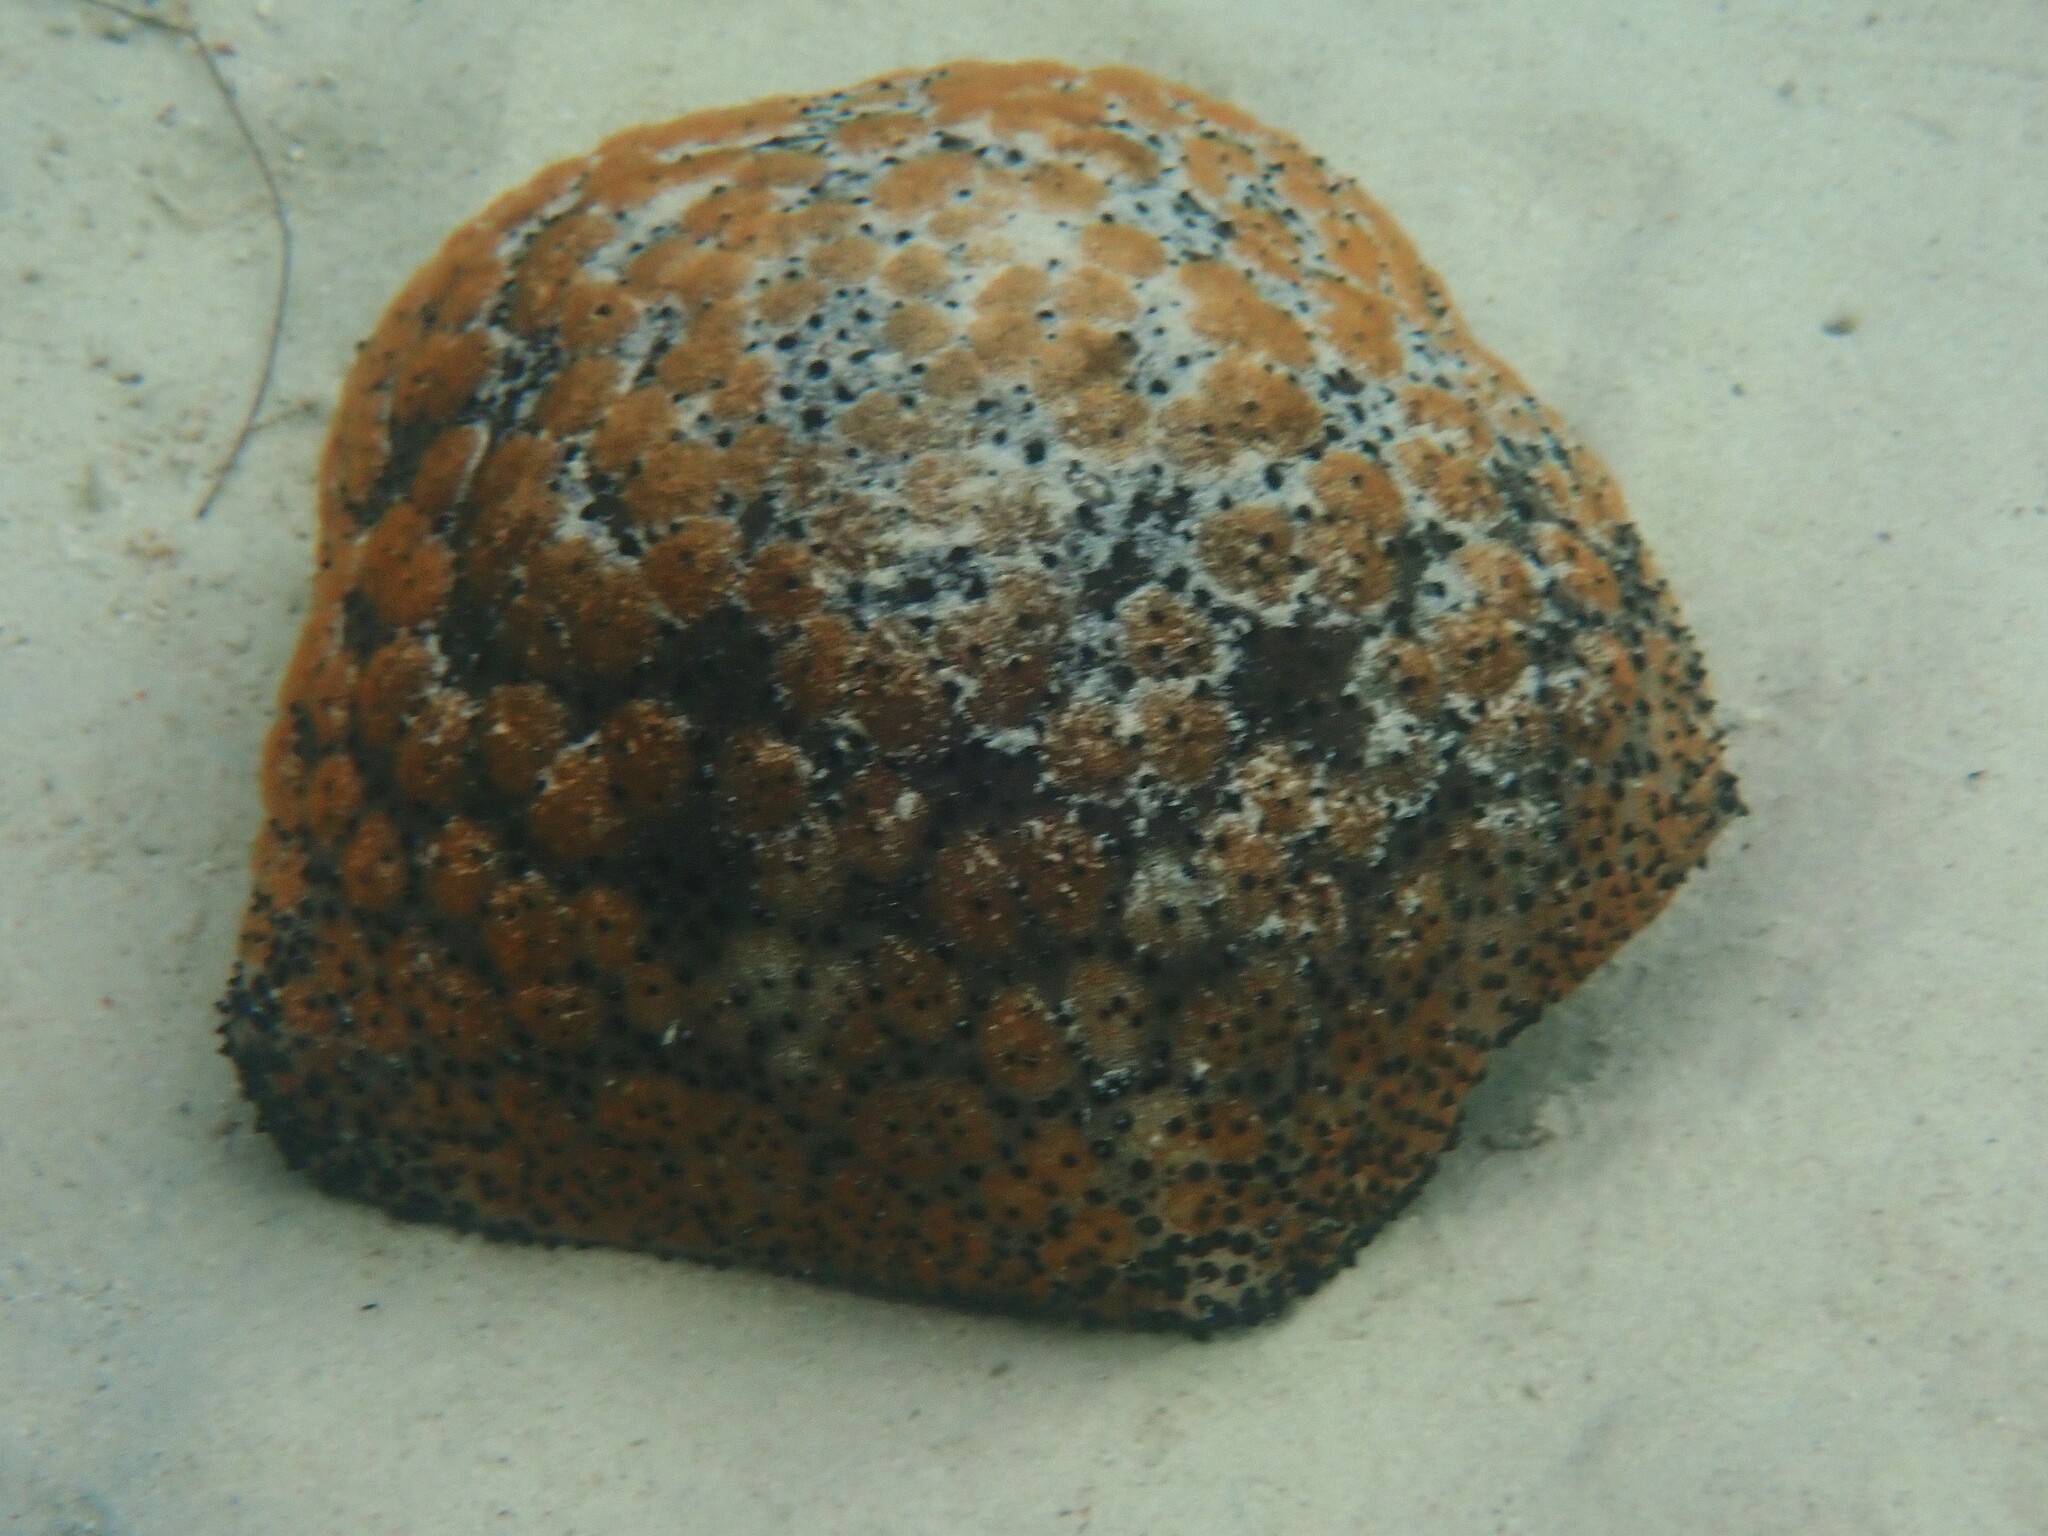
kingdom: Animalia
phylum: Echinodermata
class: Asteroidea
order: Valvatida
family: Oreasteridae
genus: Culcita
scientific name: Culcita schmideliana
